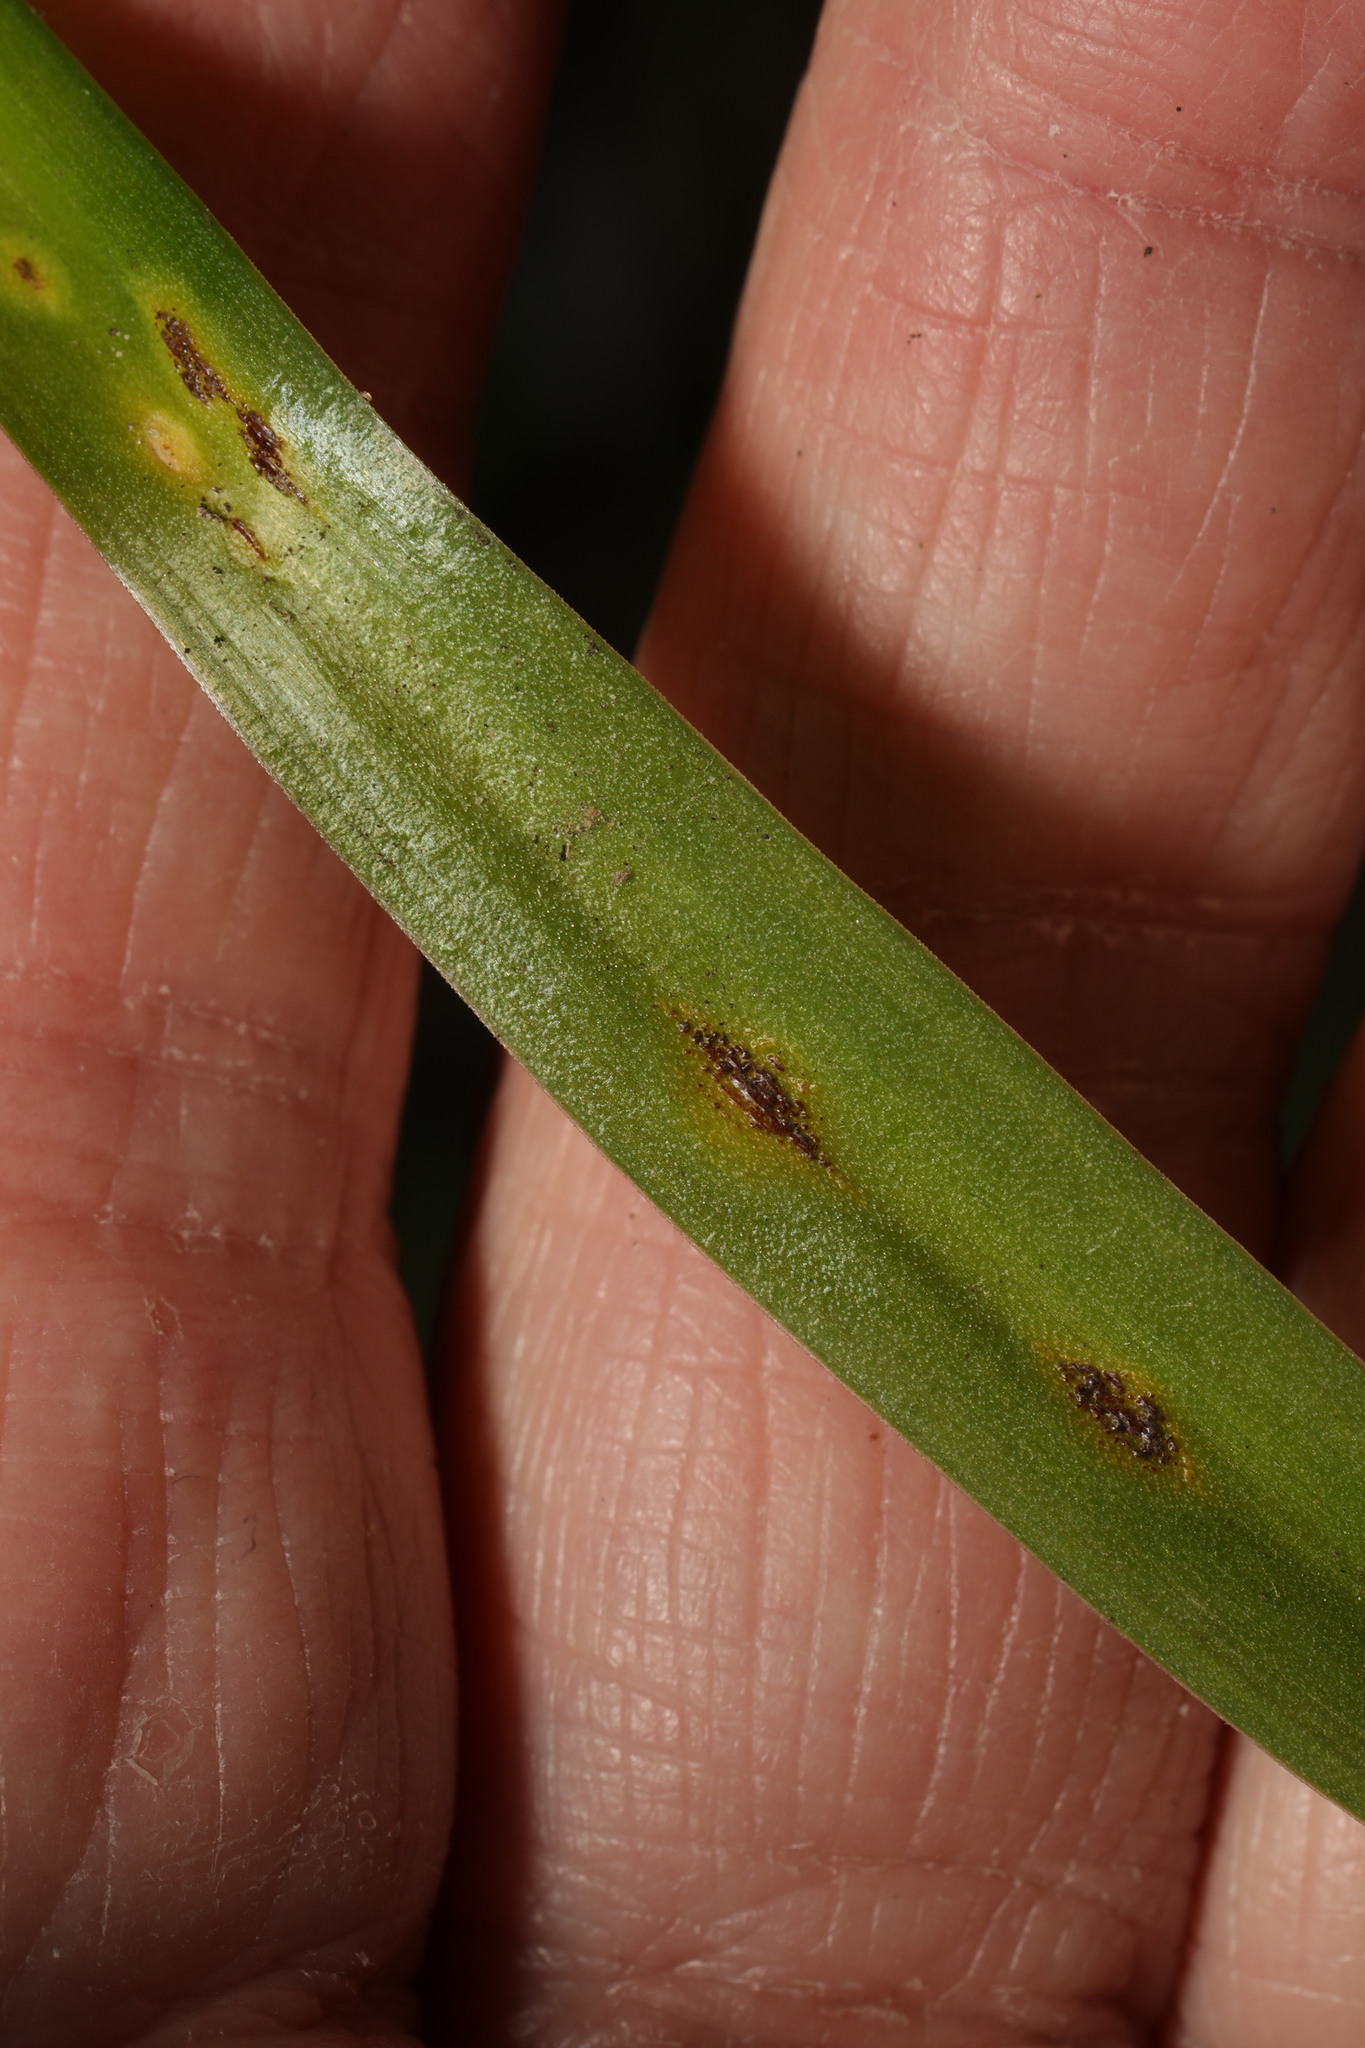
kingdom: Fungi
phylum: Basidiomycota
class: Pucciniomycetes
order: Pucciniales
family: Pucciniaceae
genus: Uromyces
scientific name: Uromyces hyacinthi
